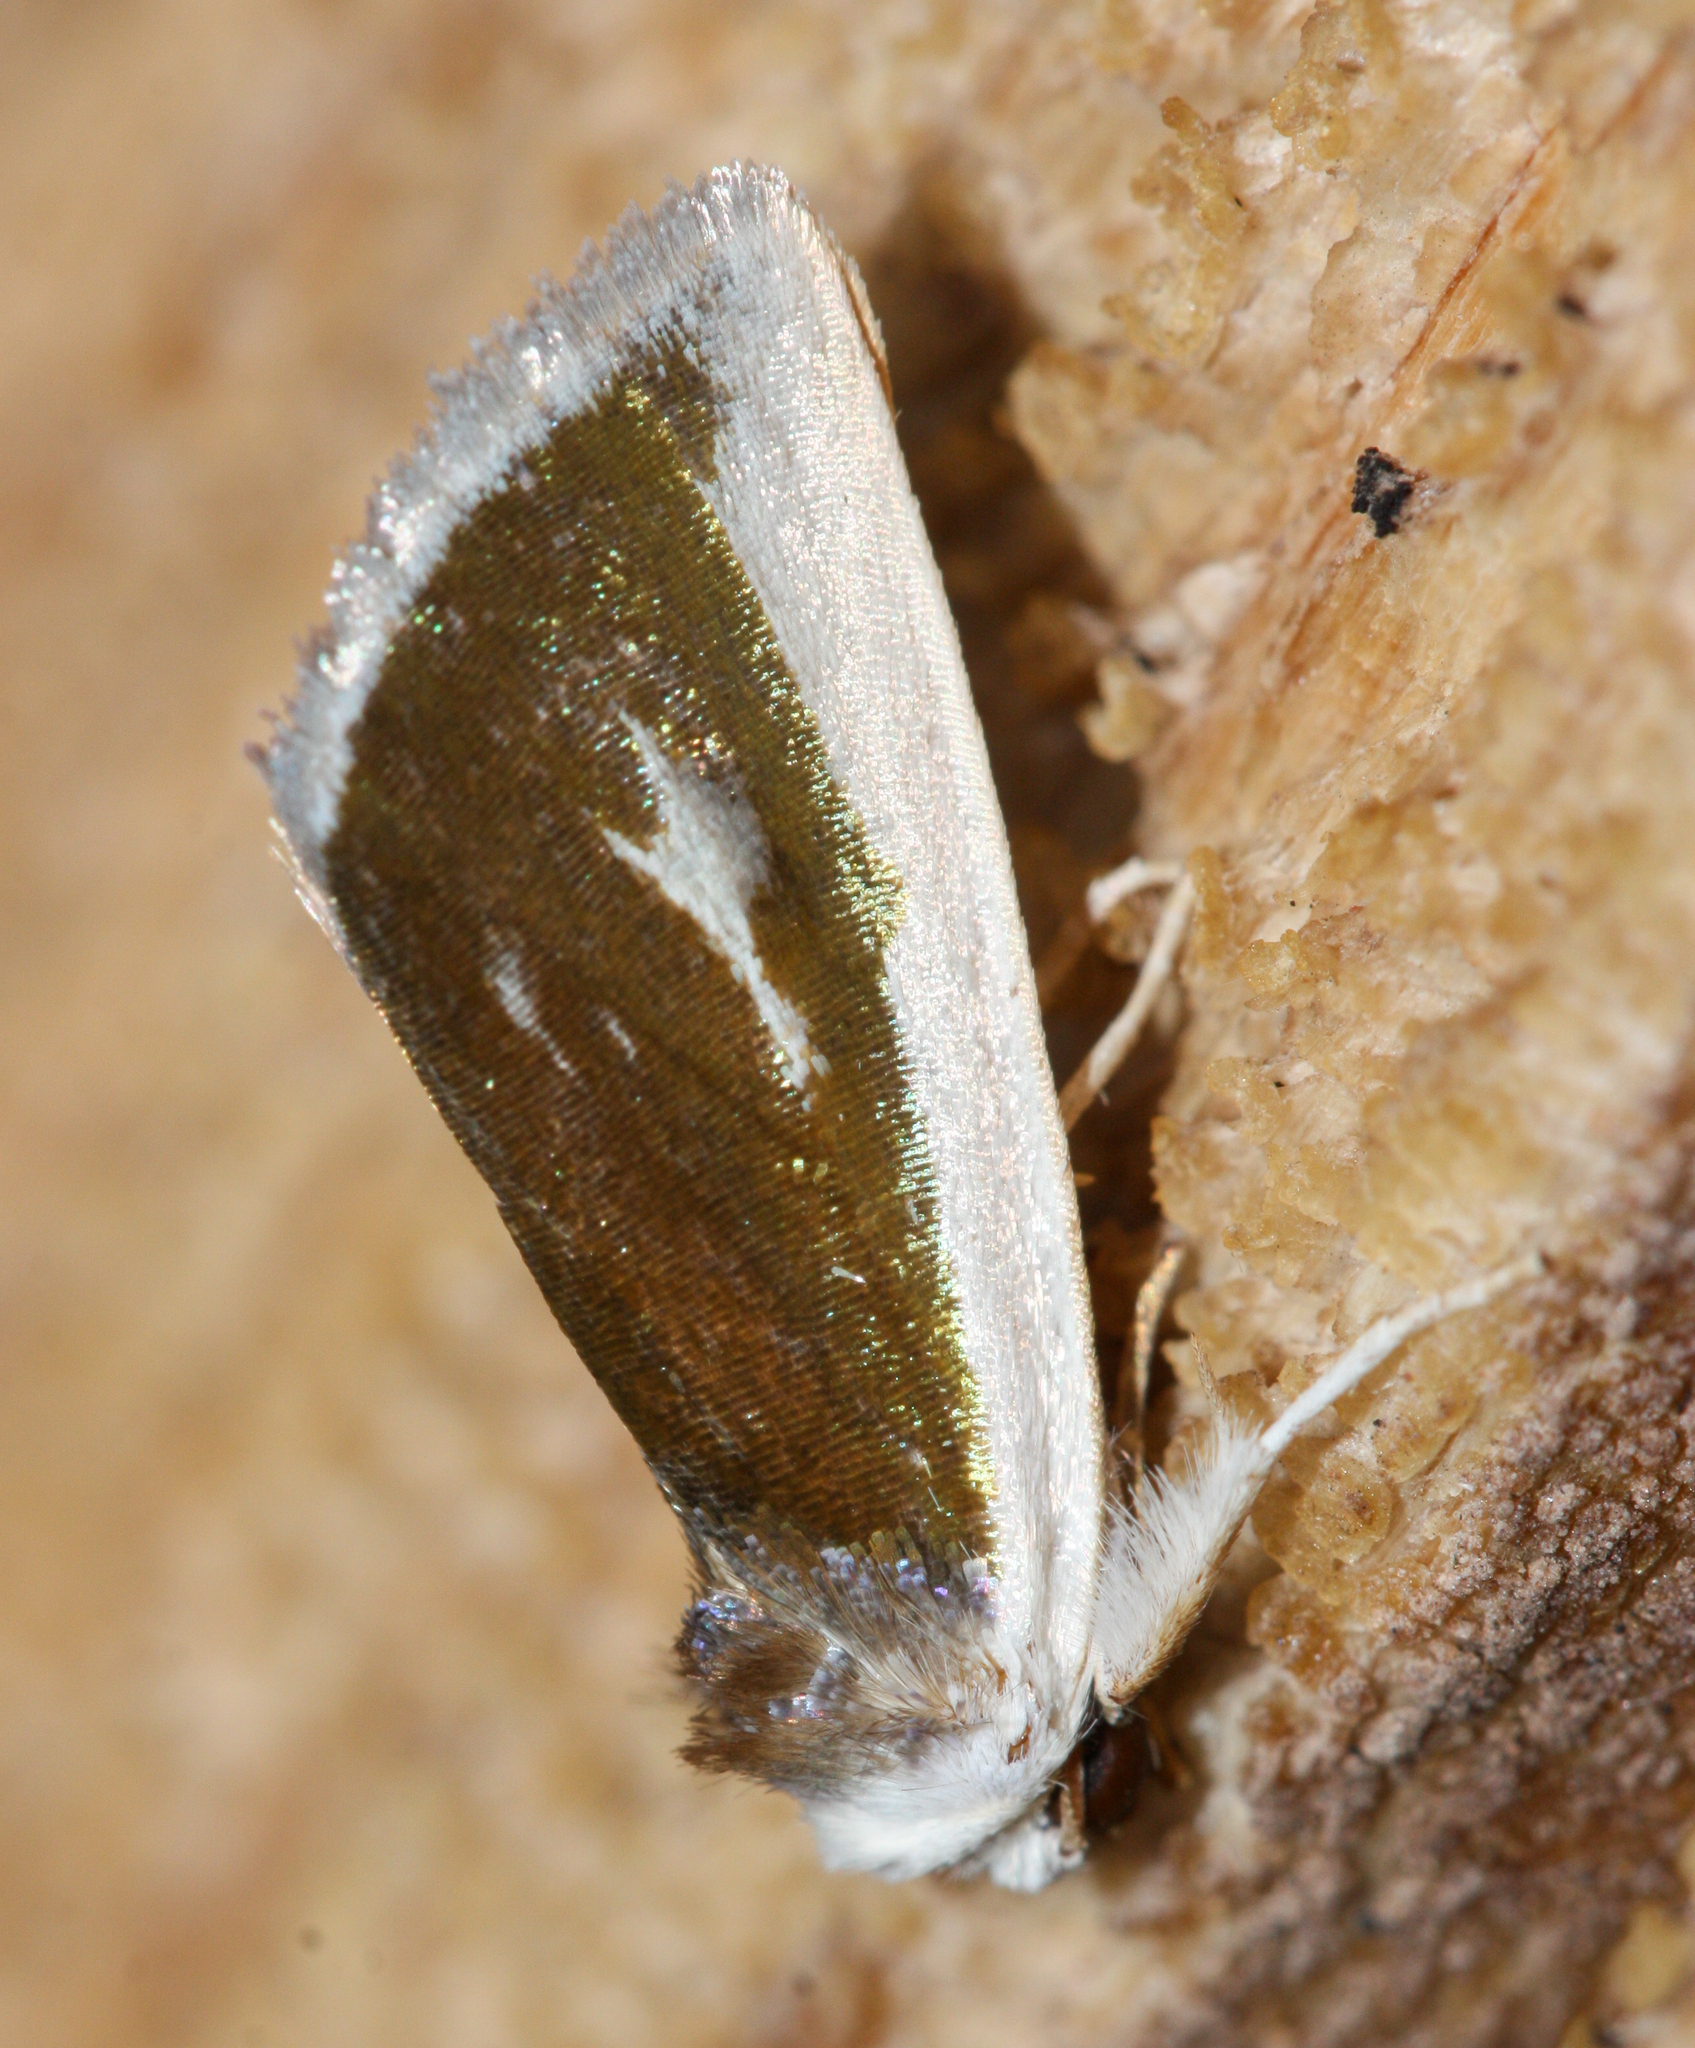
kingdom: Animalia
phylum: Arthropoda
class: Insecta
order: Lepidoptera
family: Noctuidae
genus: Neumoegenia
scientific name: Neumoegenia poetica
